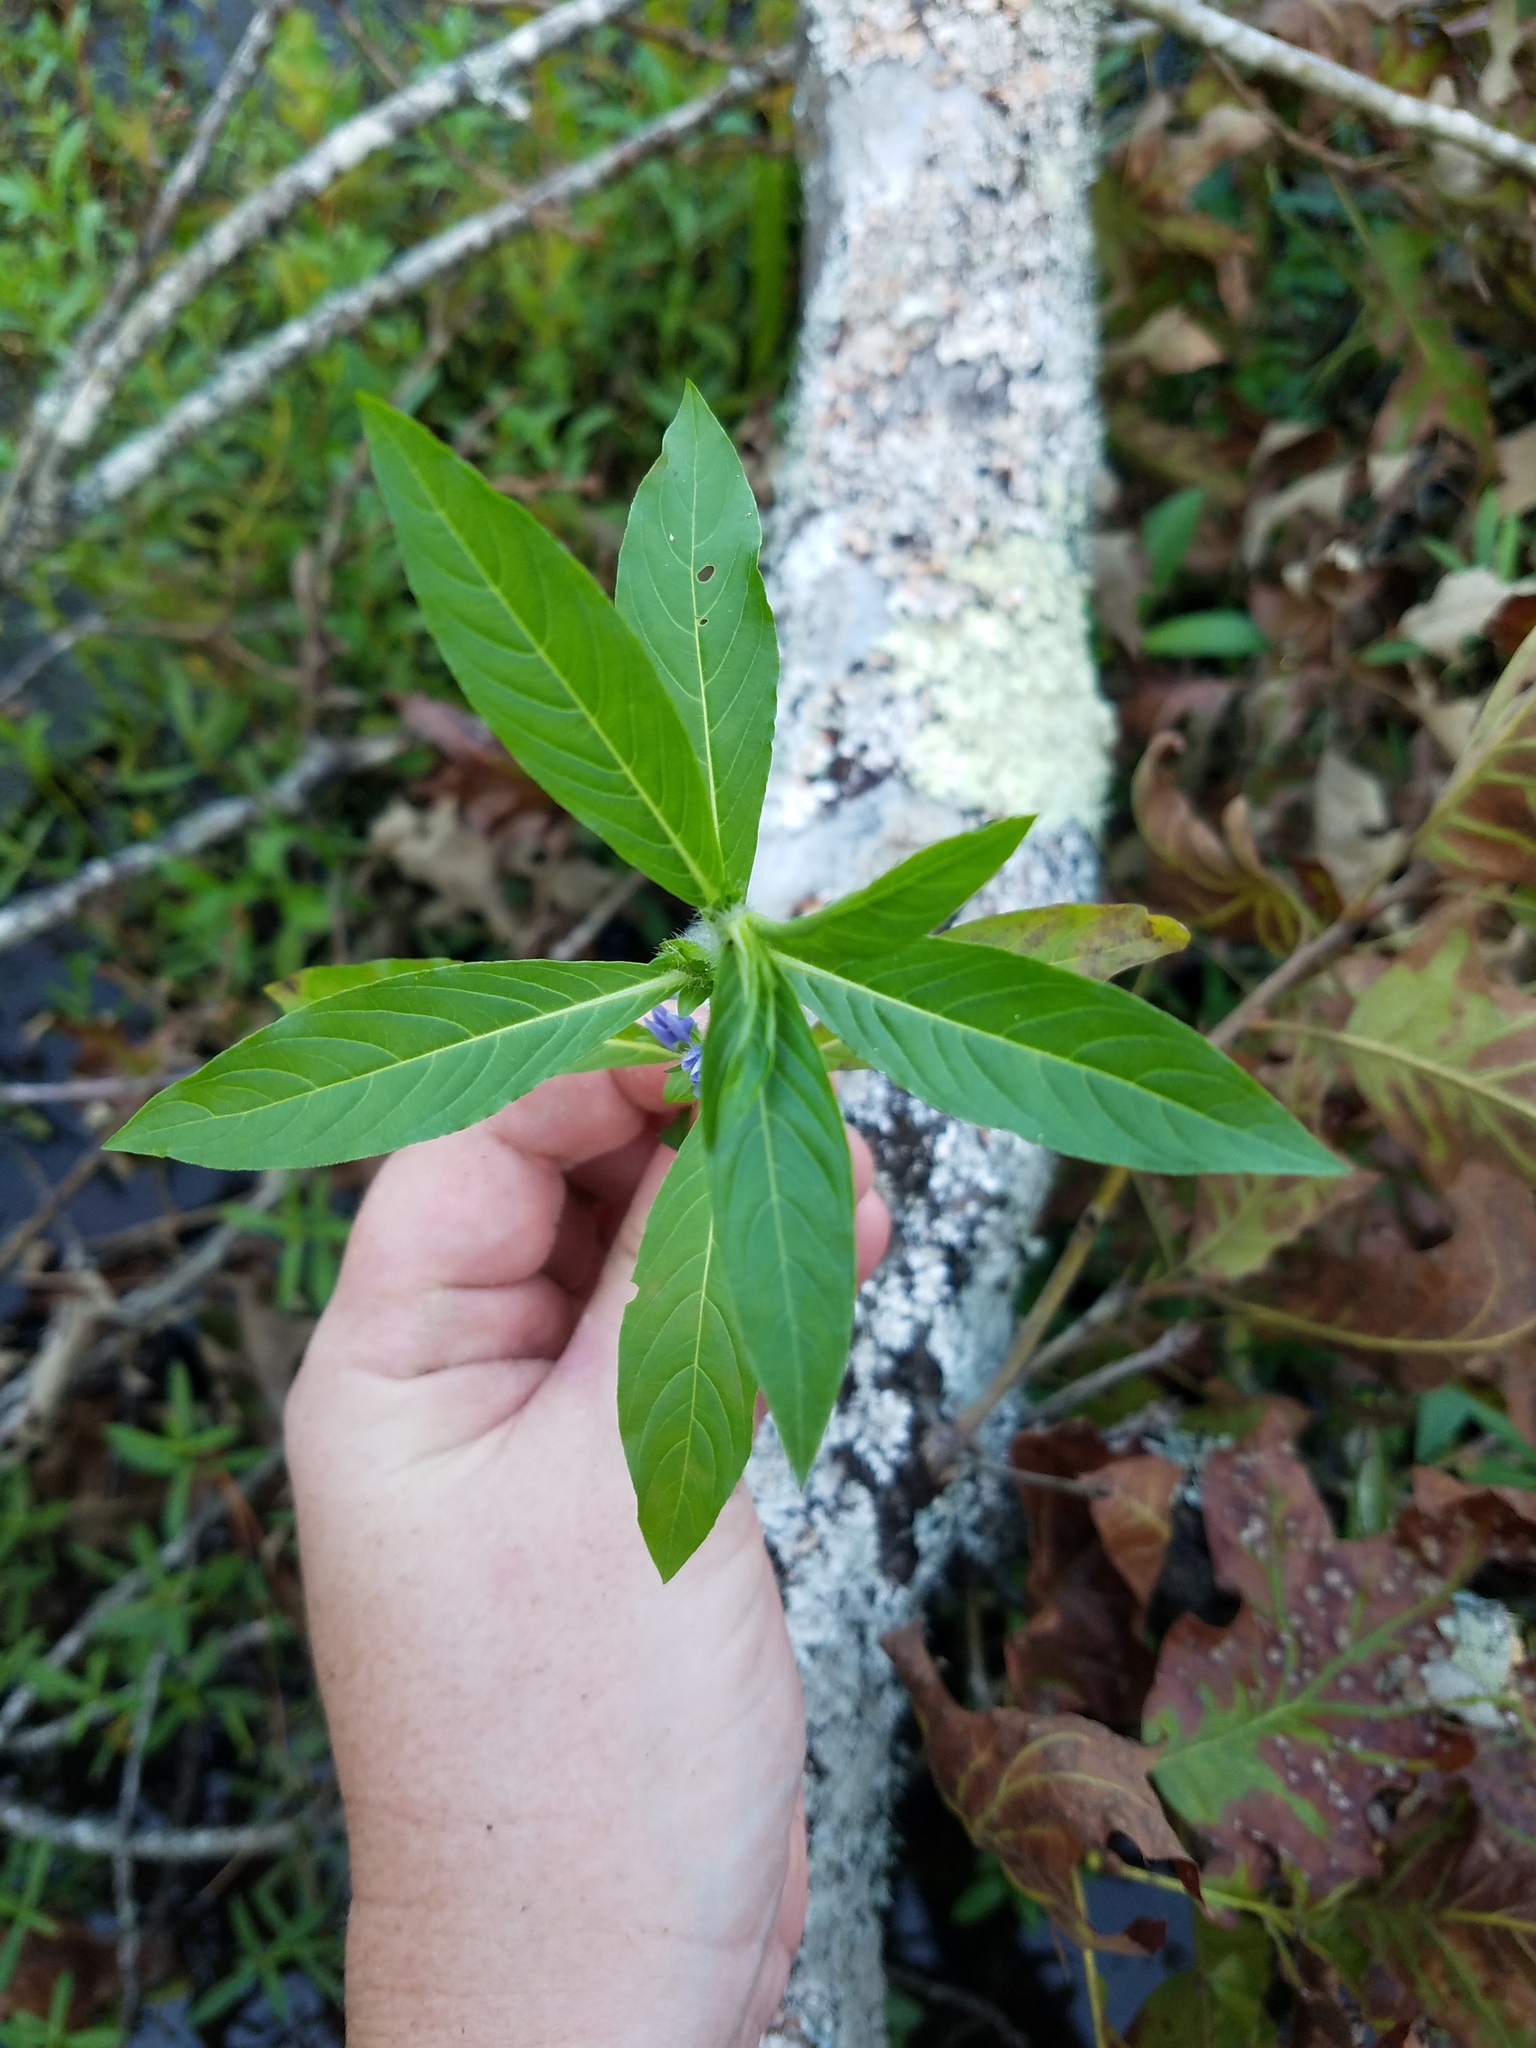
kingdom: Plantae
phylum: Tracheophyta
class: Magnoliopsida
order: Solanales
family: Hydroleaceae
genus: Hydrolea
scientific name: Hydrolea quadrivalvis
